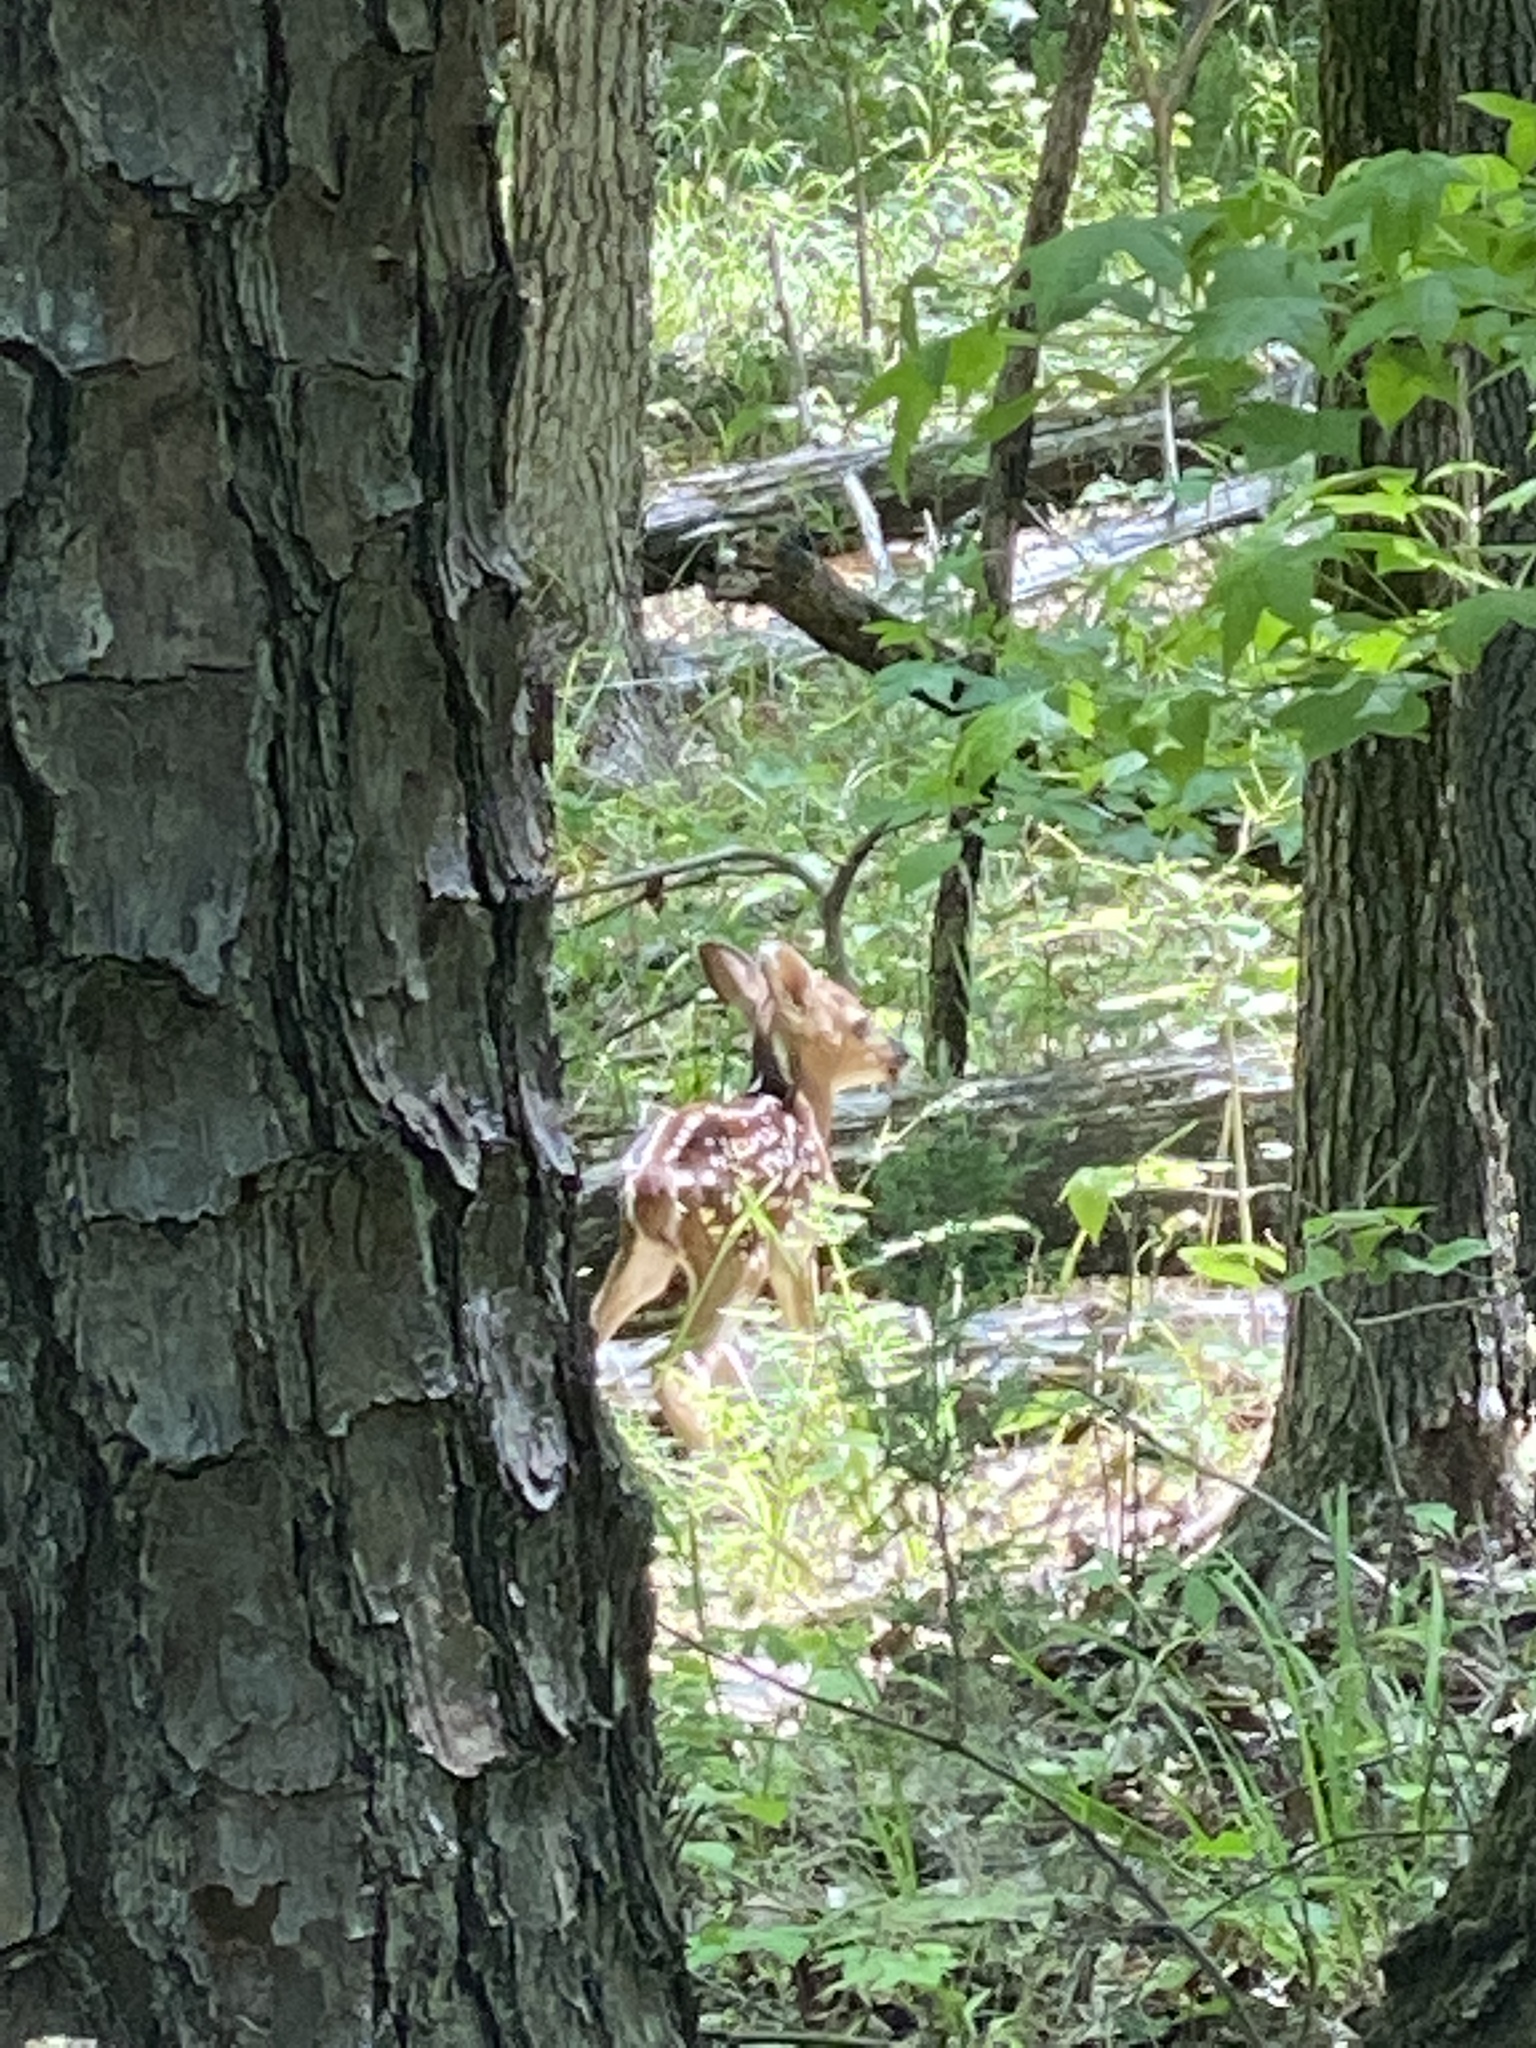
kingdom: Animalia
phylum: Chordata
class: Mammalia
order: Artiodactyla
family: Cervidae
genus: Odocoileus
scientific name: Odocoileus virginianus
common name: White-tailed deer
